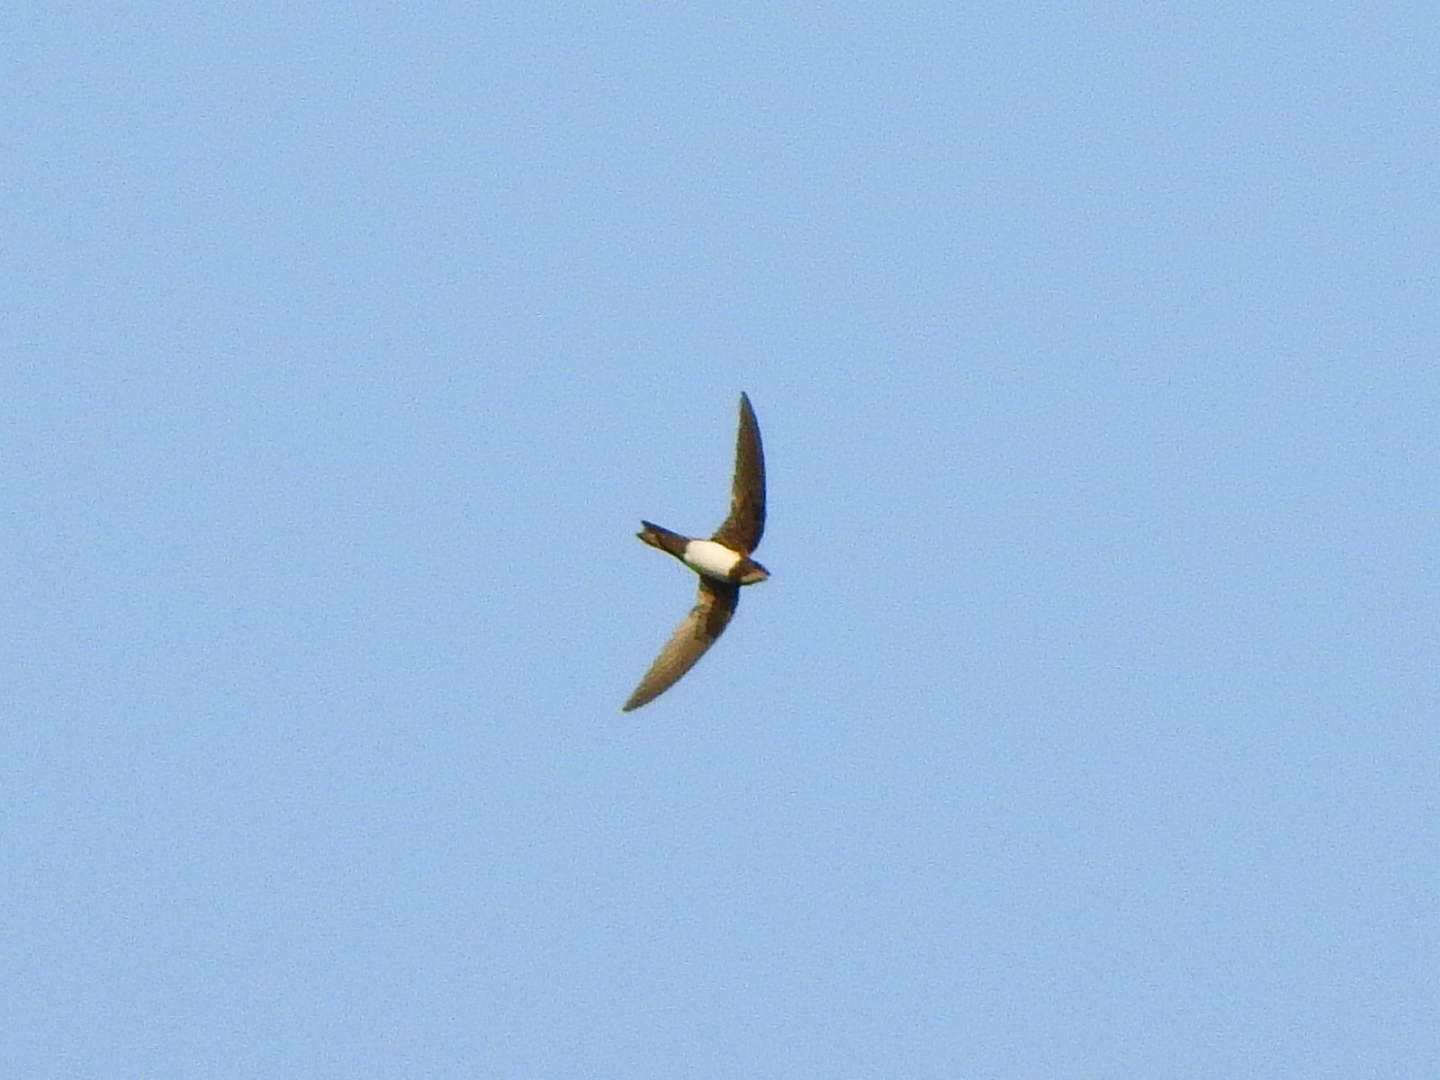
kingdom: Animalia
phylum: Chordata
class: Aves
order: Apodiformes
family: Apodidae
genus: Tachymarptis
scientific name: Tachymarptis melba
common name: Alpine swift
